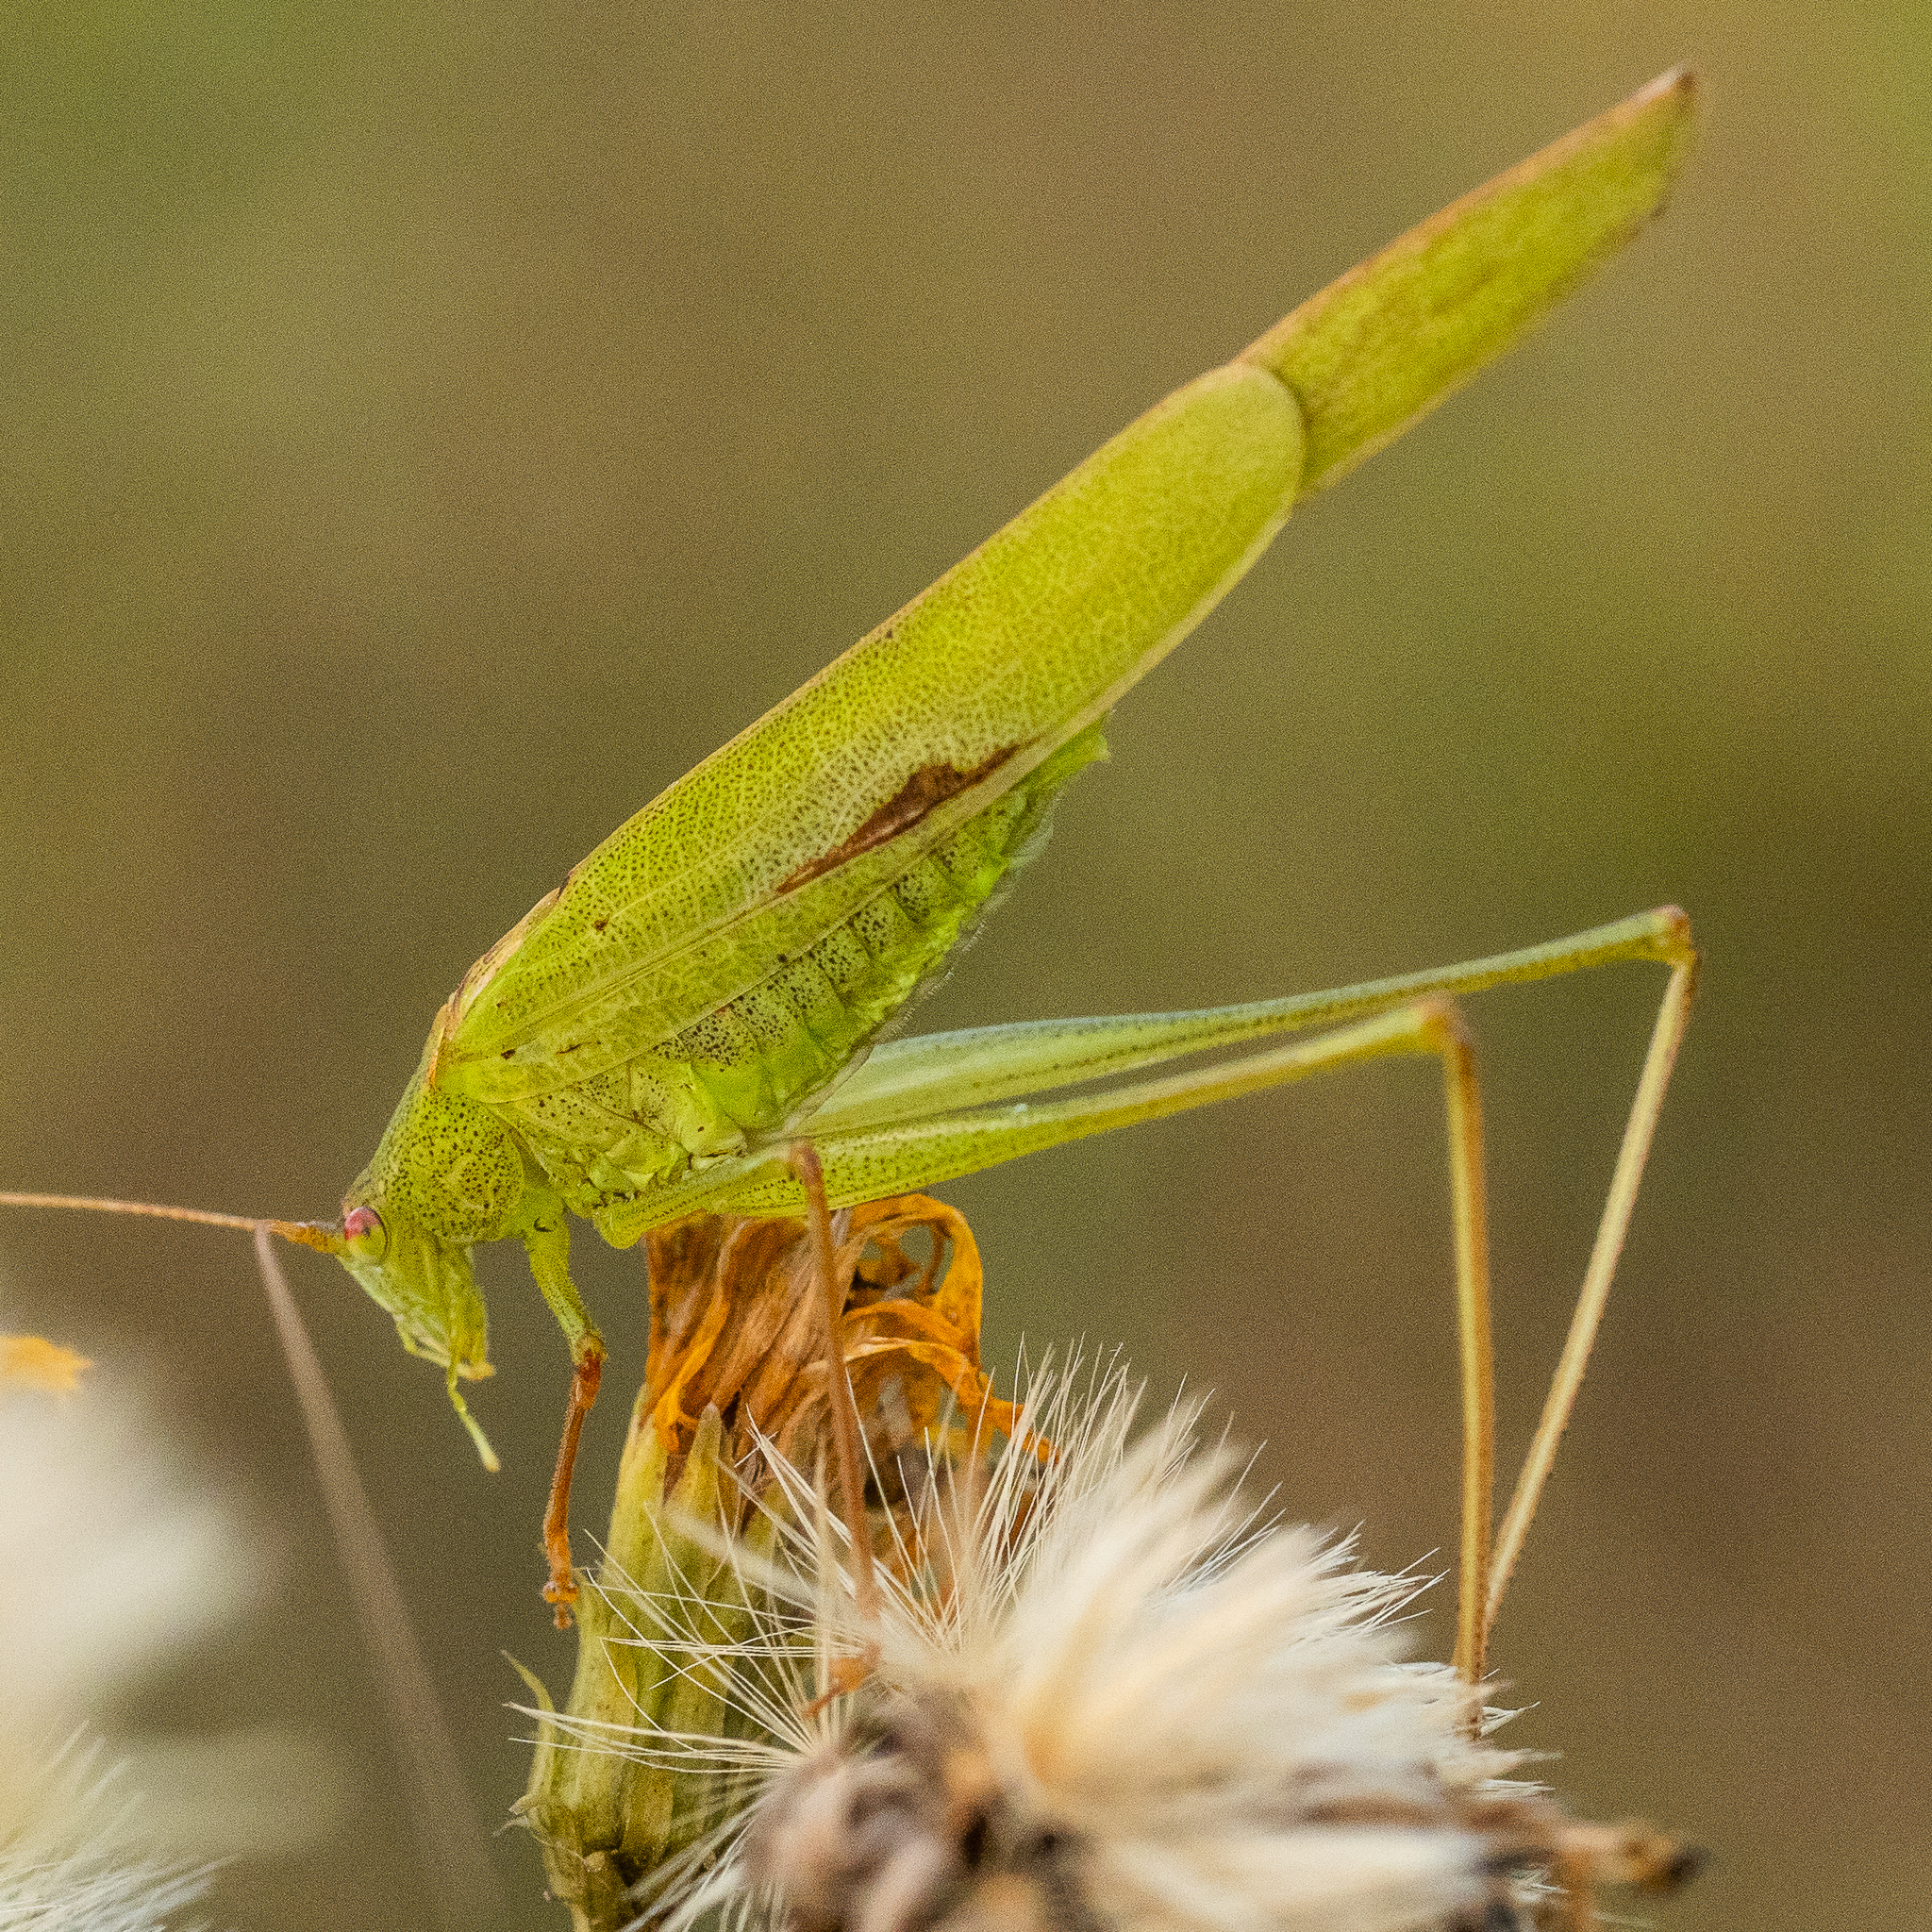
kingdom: Animalia
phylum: Arthropoda
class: Insecta
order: Orthoptera
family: Tettigoniidae
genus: Phaneroptera
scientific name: Phaneroptera falcata
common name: Sickle-bearing bush-cricket
